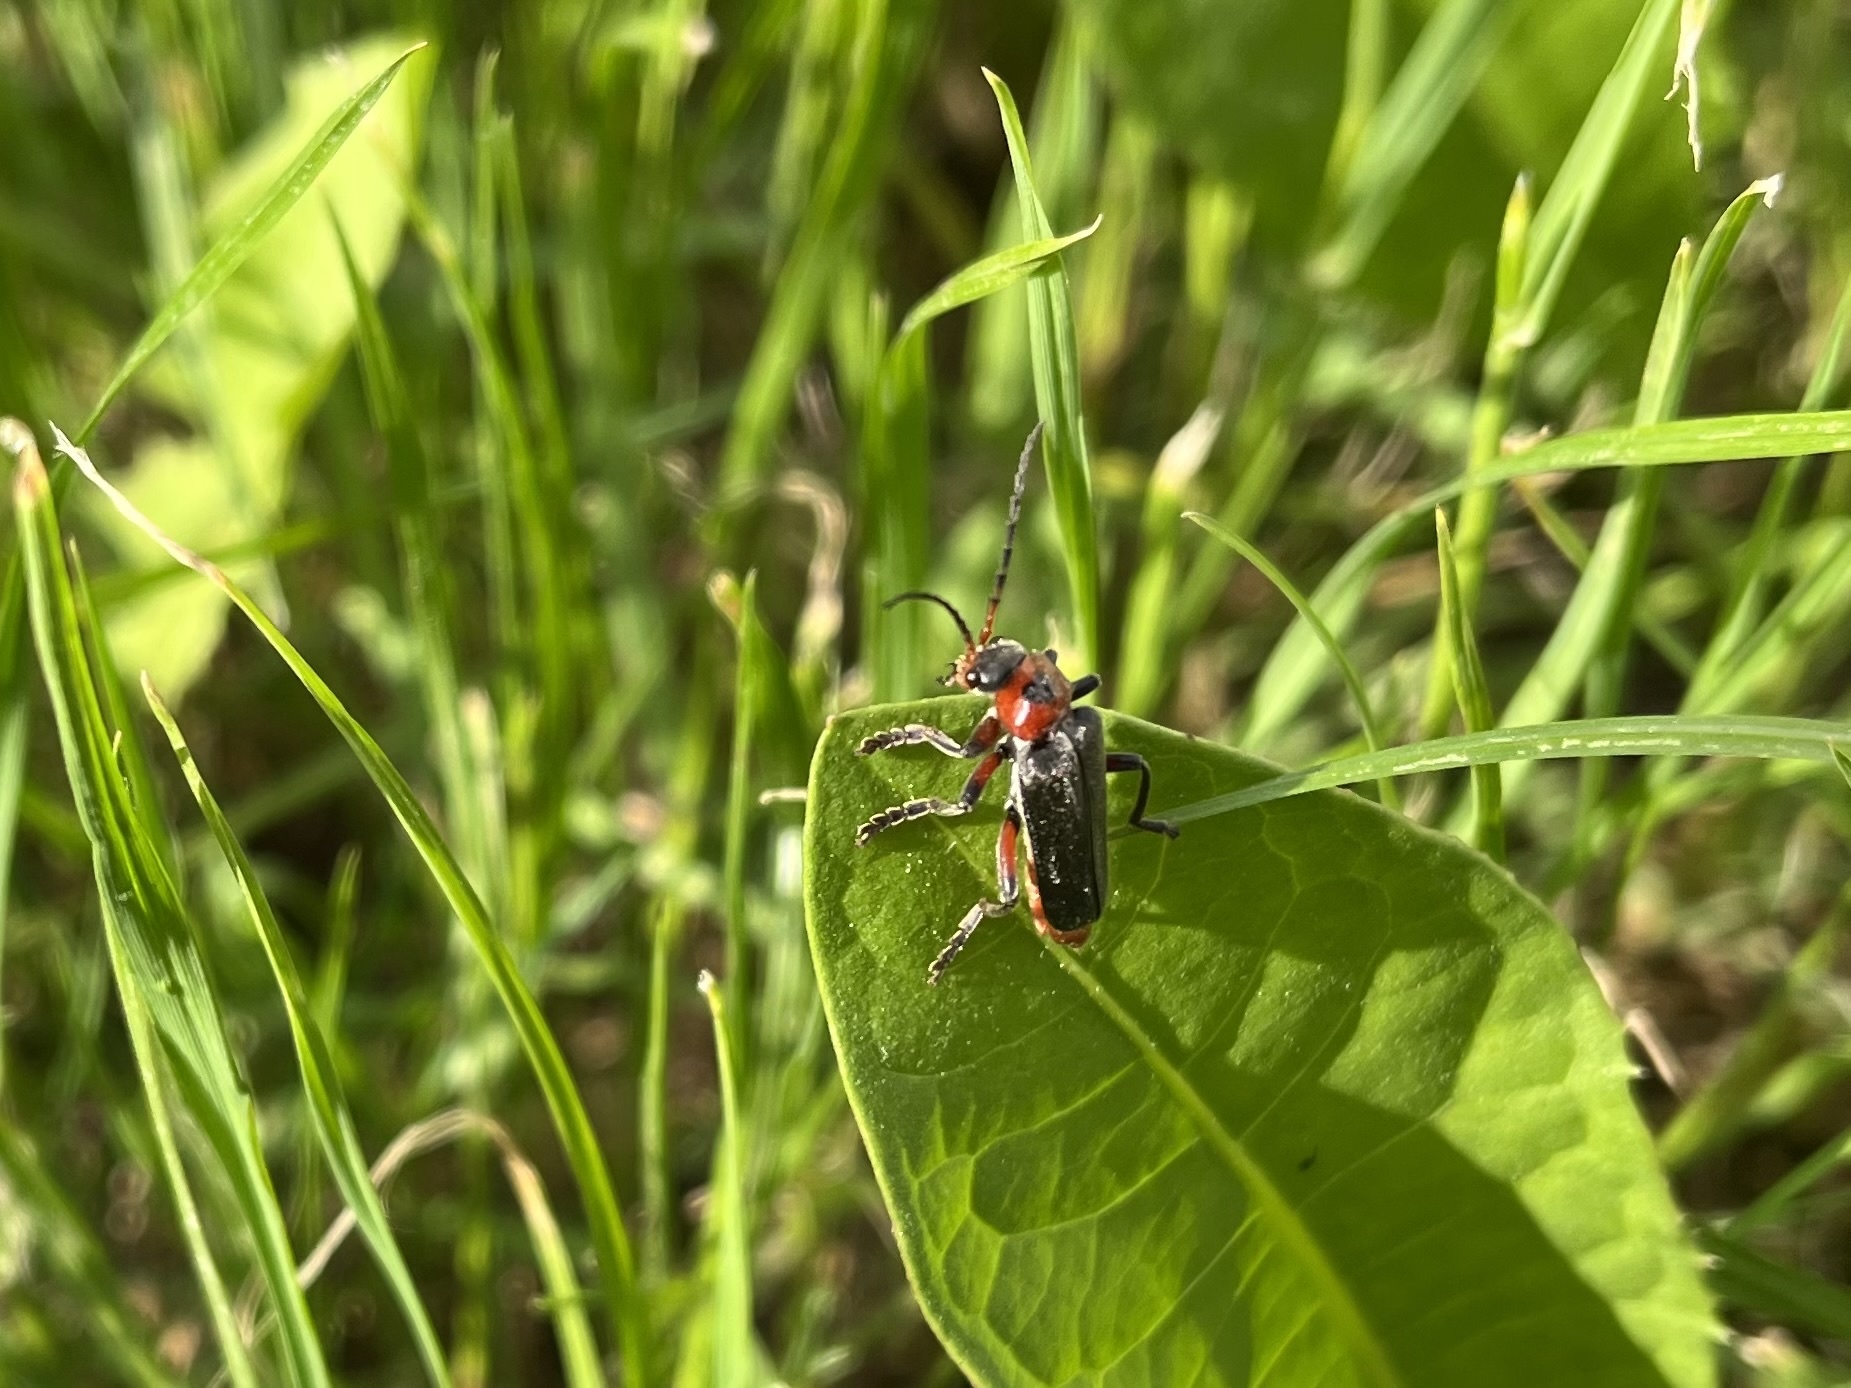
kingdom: Animalia
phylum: Arthropoda
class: Insecta
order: Coleoptera
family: Cantharidae
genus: Cantharis
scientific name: Cantharis rustica
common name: Soldier beetle
